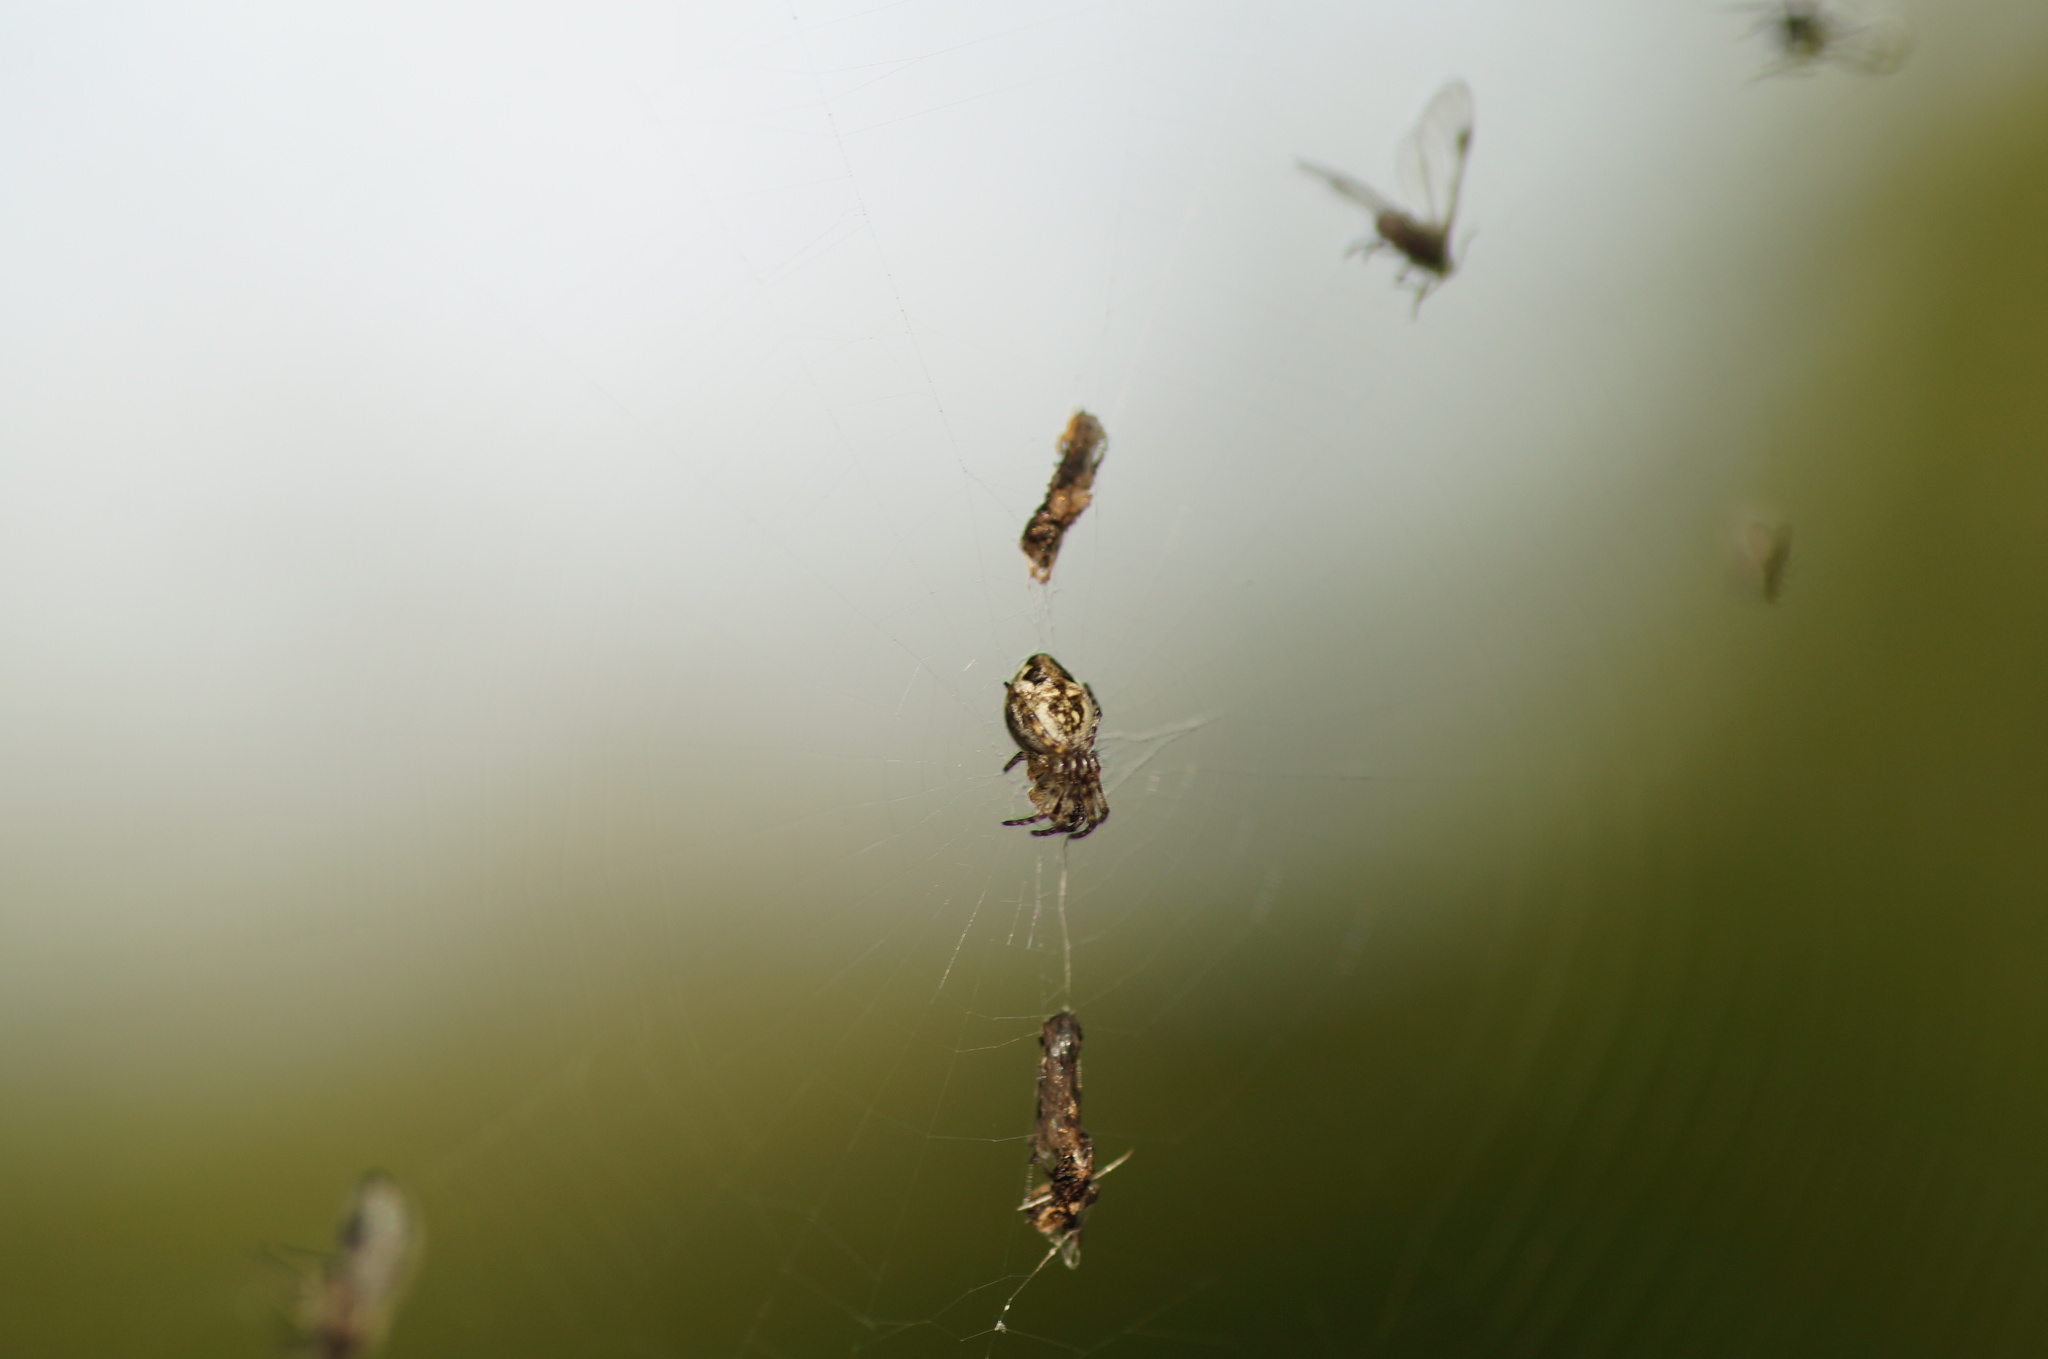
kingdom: Animalia
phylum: Arthropoda
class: Arachnida
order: Araneae
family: Araneidae
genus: Cyclosa
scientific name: Cyclosa conica
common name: Conical trashline orbweaver
